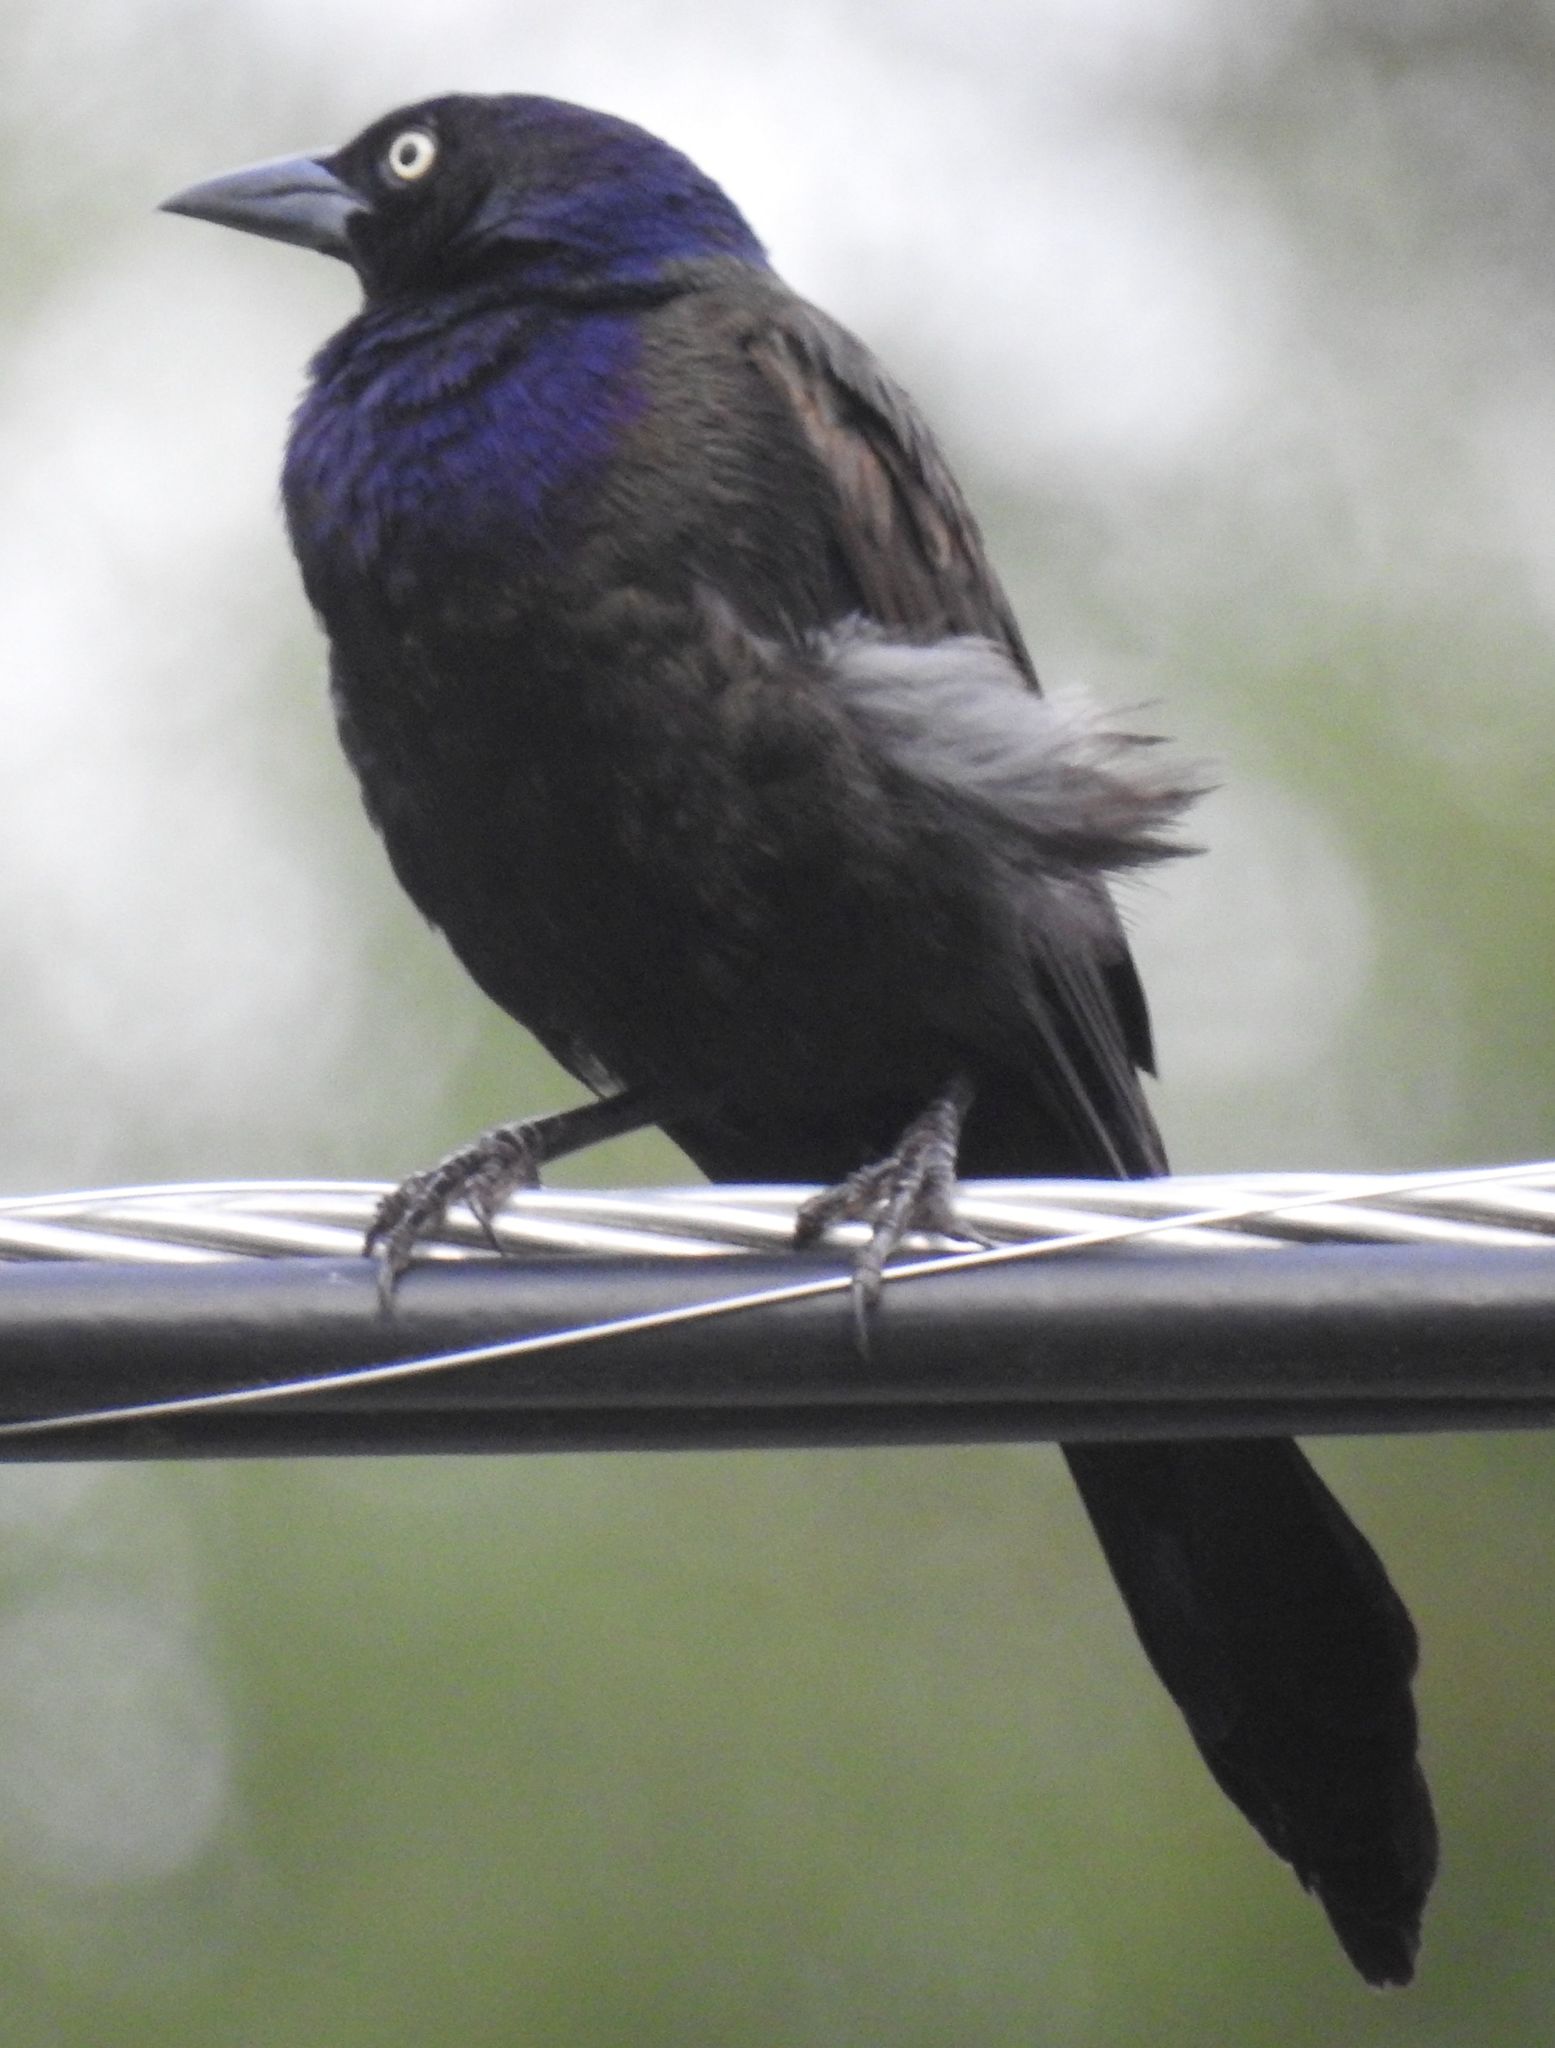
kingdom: Animalia
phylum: Chordata
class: Aves
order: Passeriformes
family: Icteridae
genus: Quiscalus
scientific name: Quiscalus quiscula
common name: Common grackle
